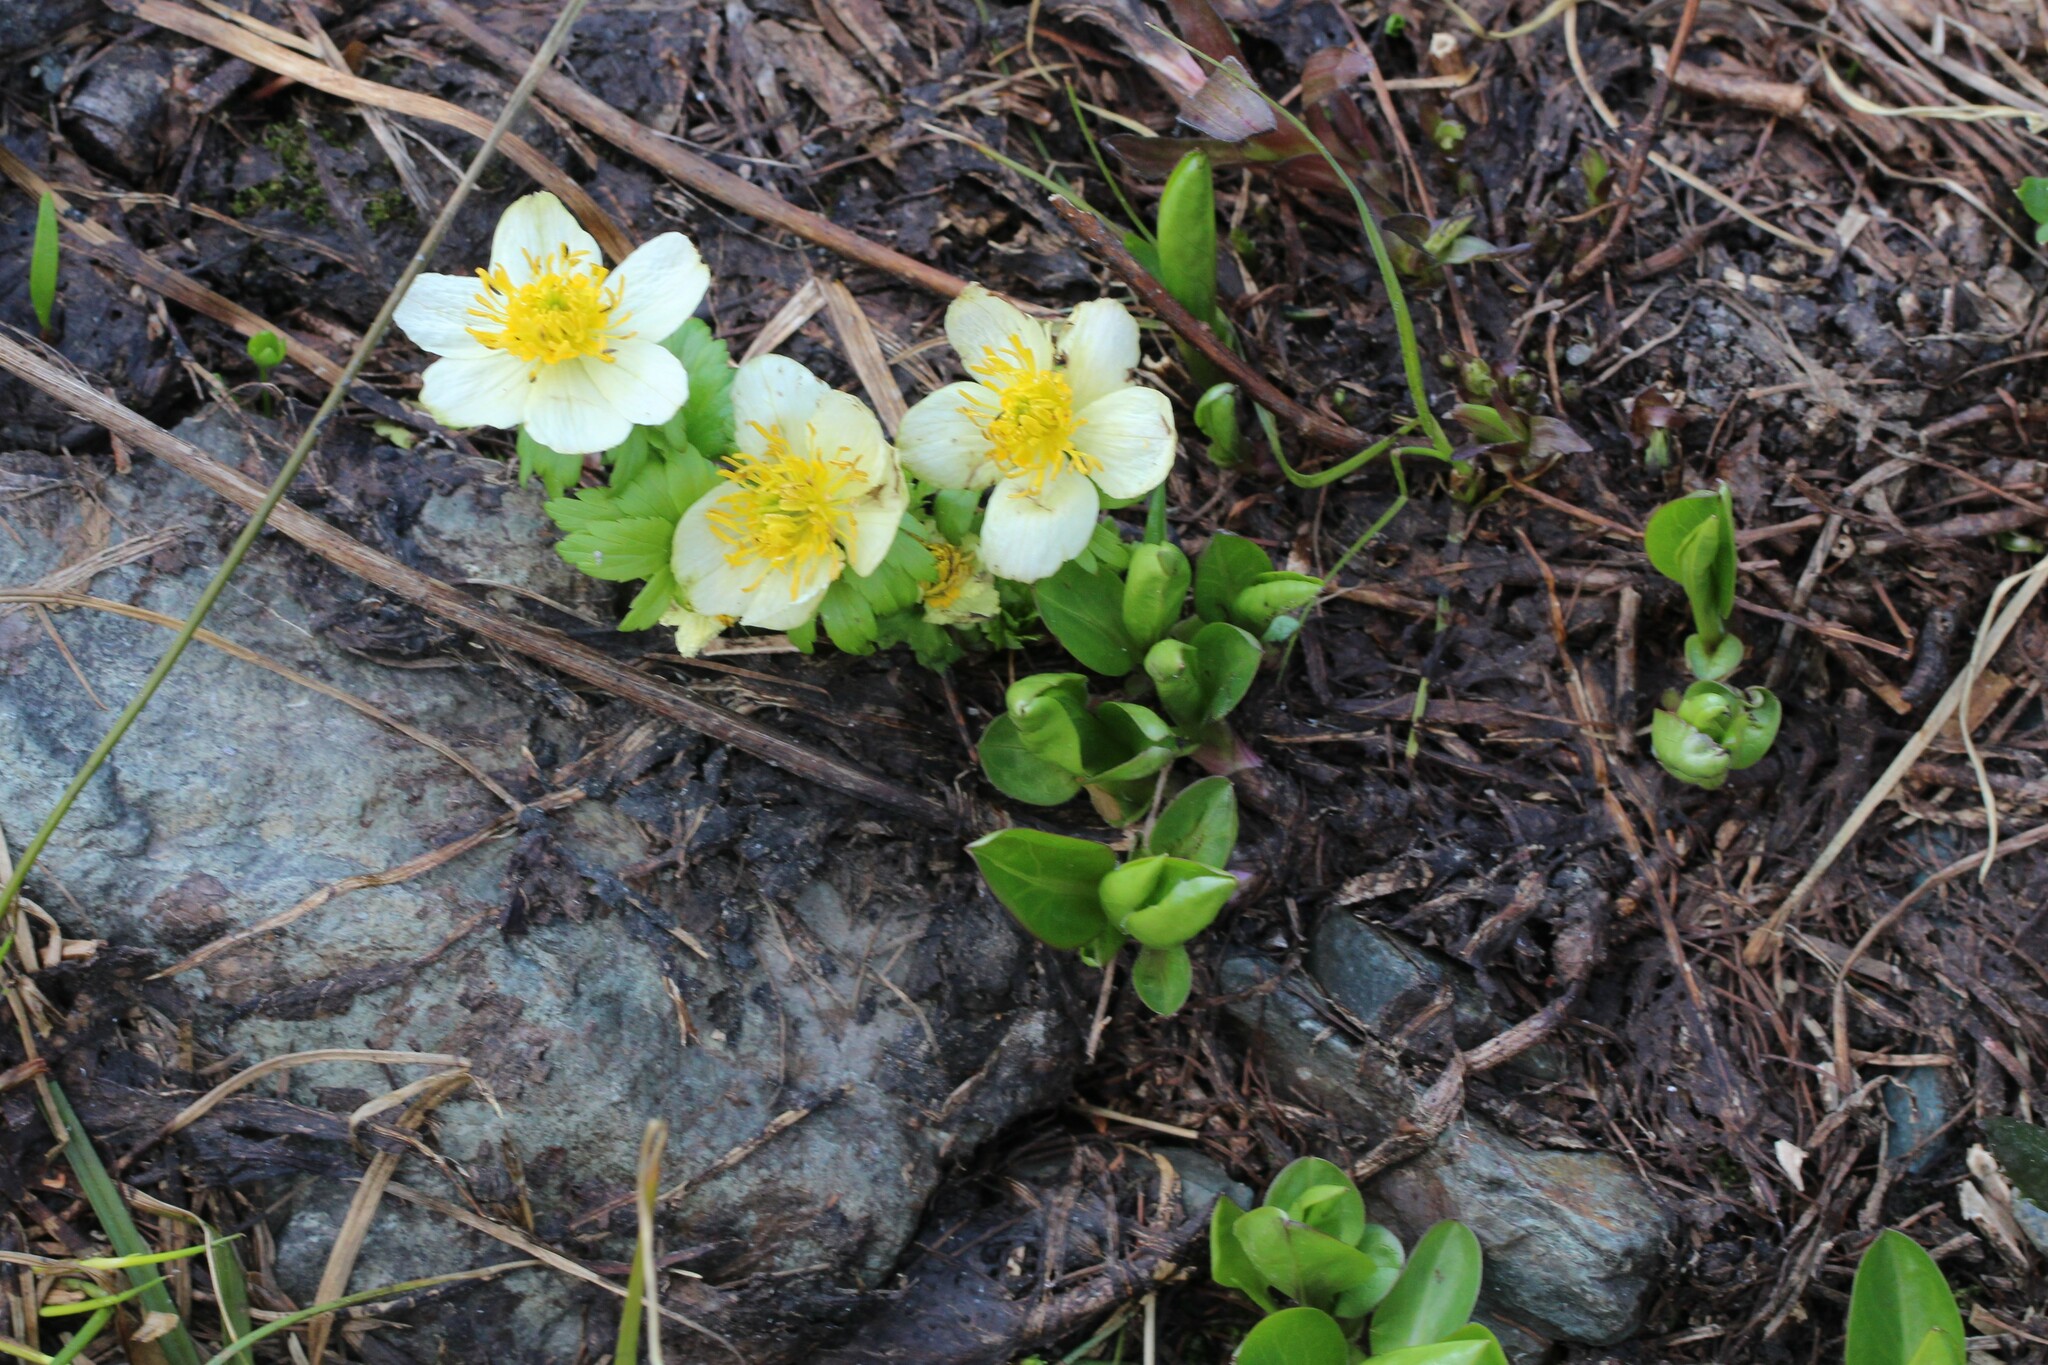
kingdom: Plantae
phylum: Tracheophyta
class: Magnoliopsida
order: Ranunculales
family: Ranunculaceae
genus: Trollius
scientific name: Trollius laxus
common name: American globeflower
